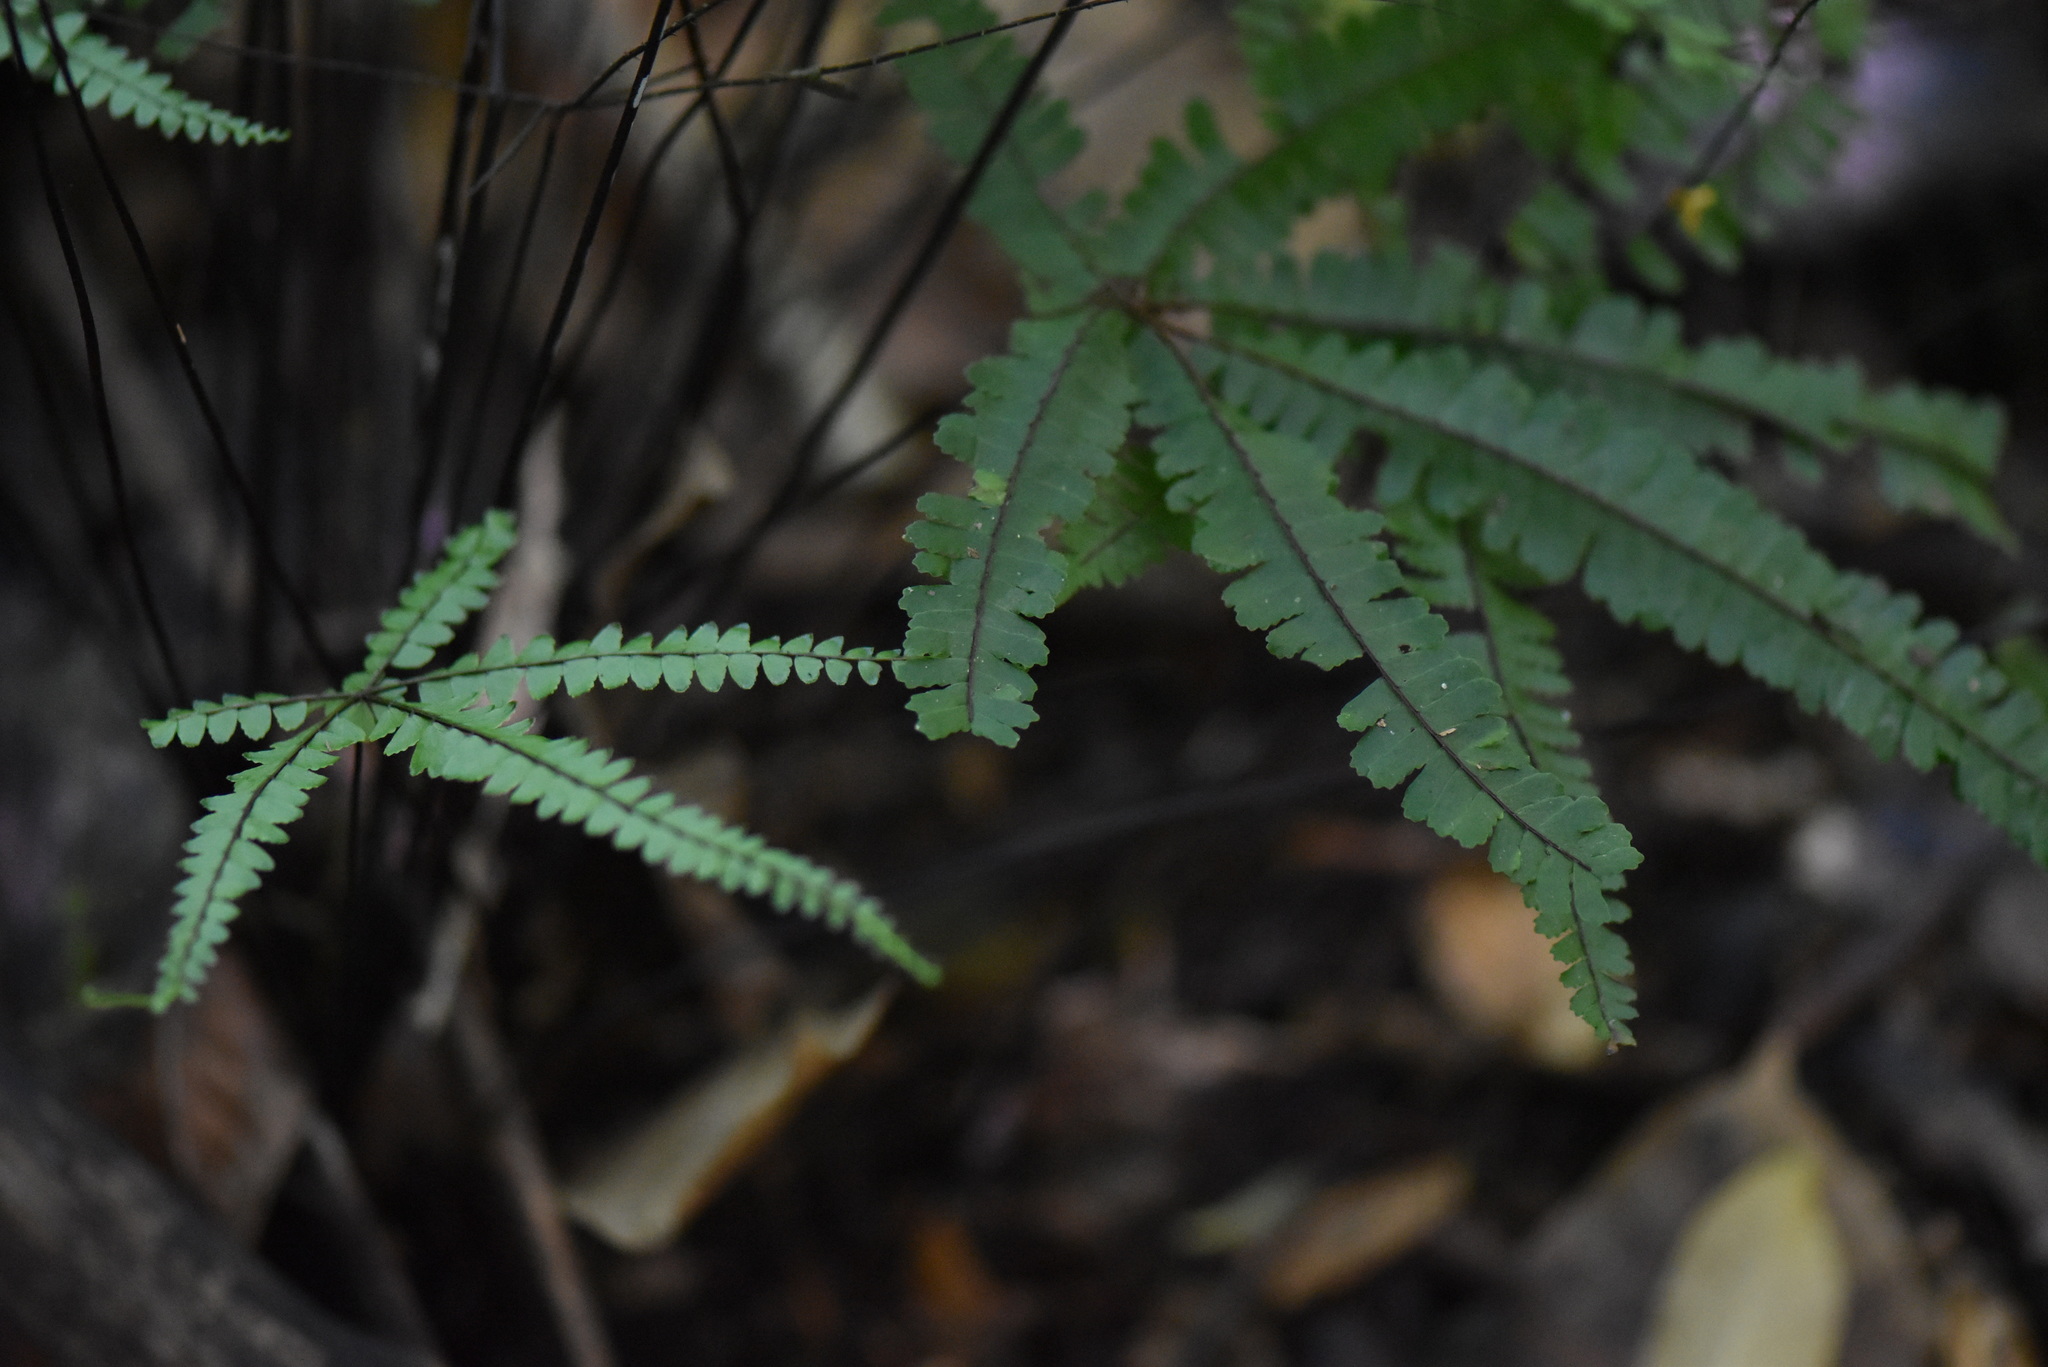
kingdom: Plantae
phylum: Tracheophyta
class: Polypodiopsida
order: Polypodiales
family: Pteridaceae
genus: Adiantopsis
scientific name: Adiantopsis radiata
